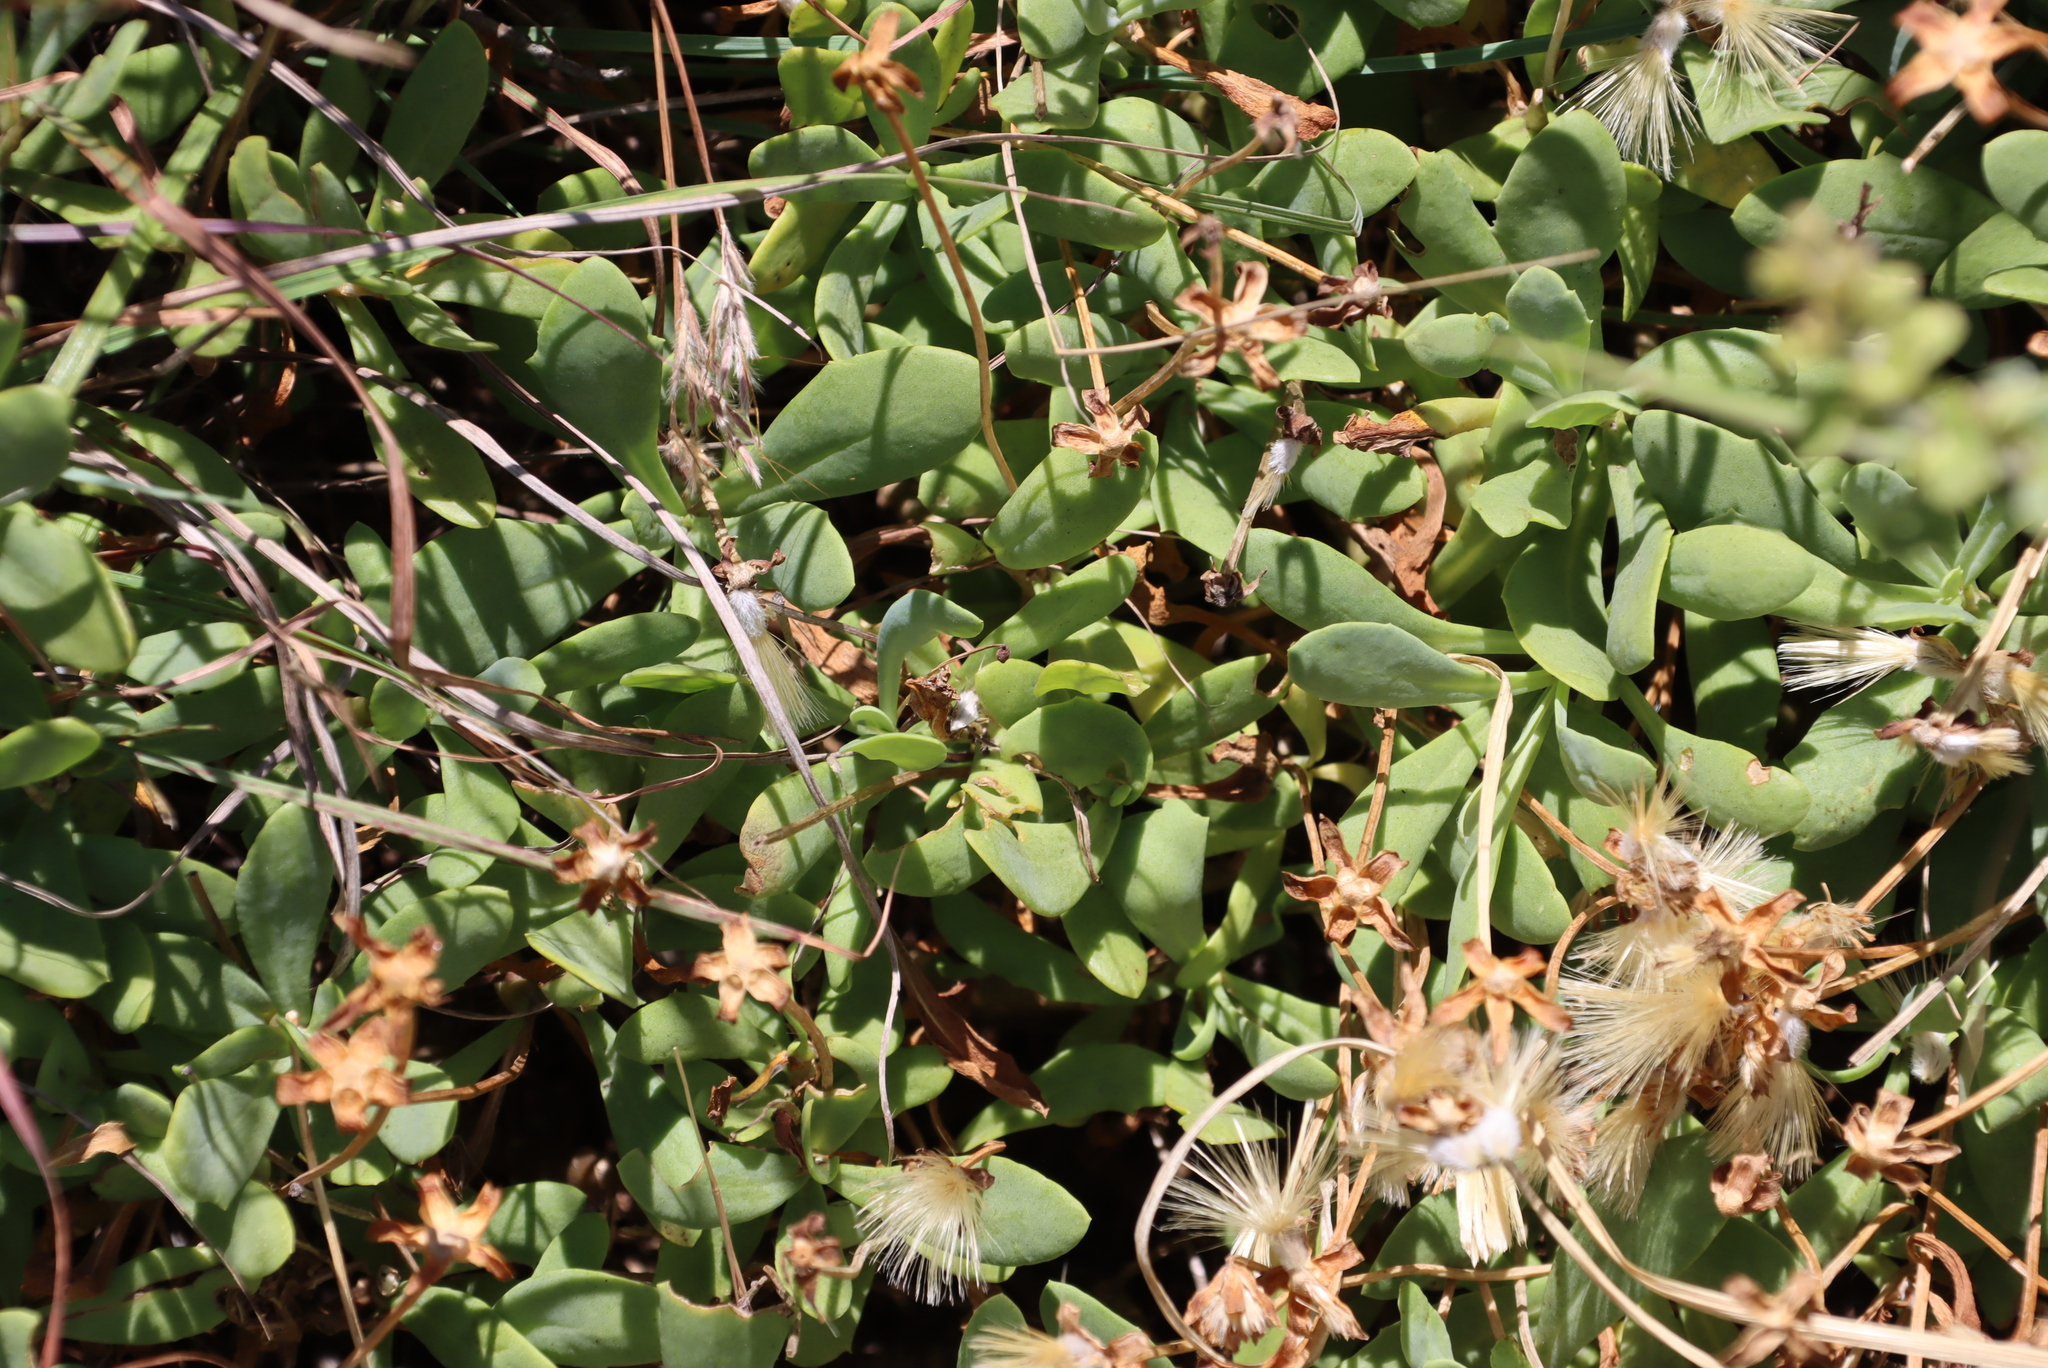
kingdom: Plantae
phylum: Tracheophyta
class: Magnoliopsida
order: Asterales
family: Asteraceae
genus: Othonna
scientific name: Othonna arborescens
